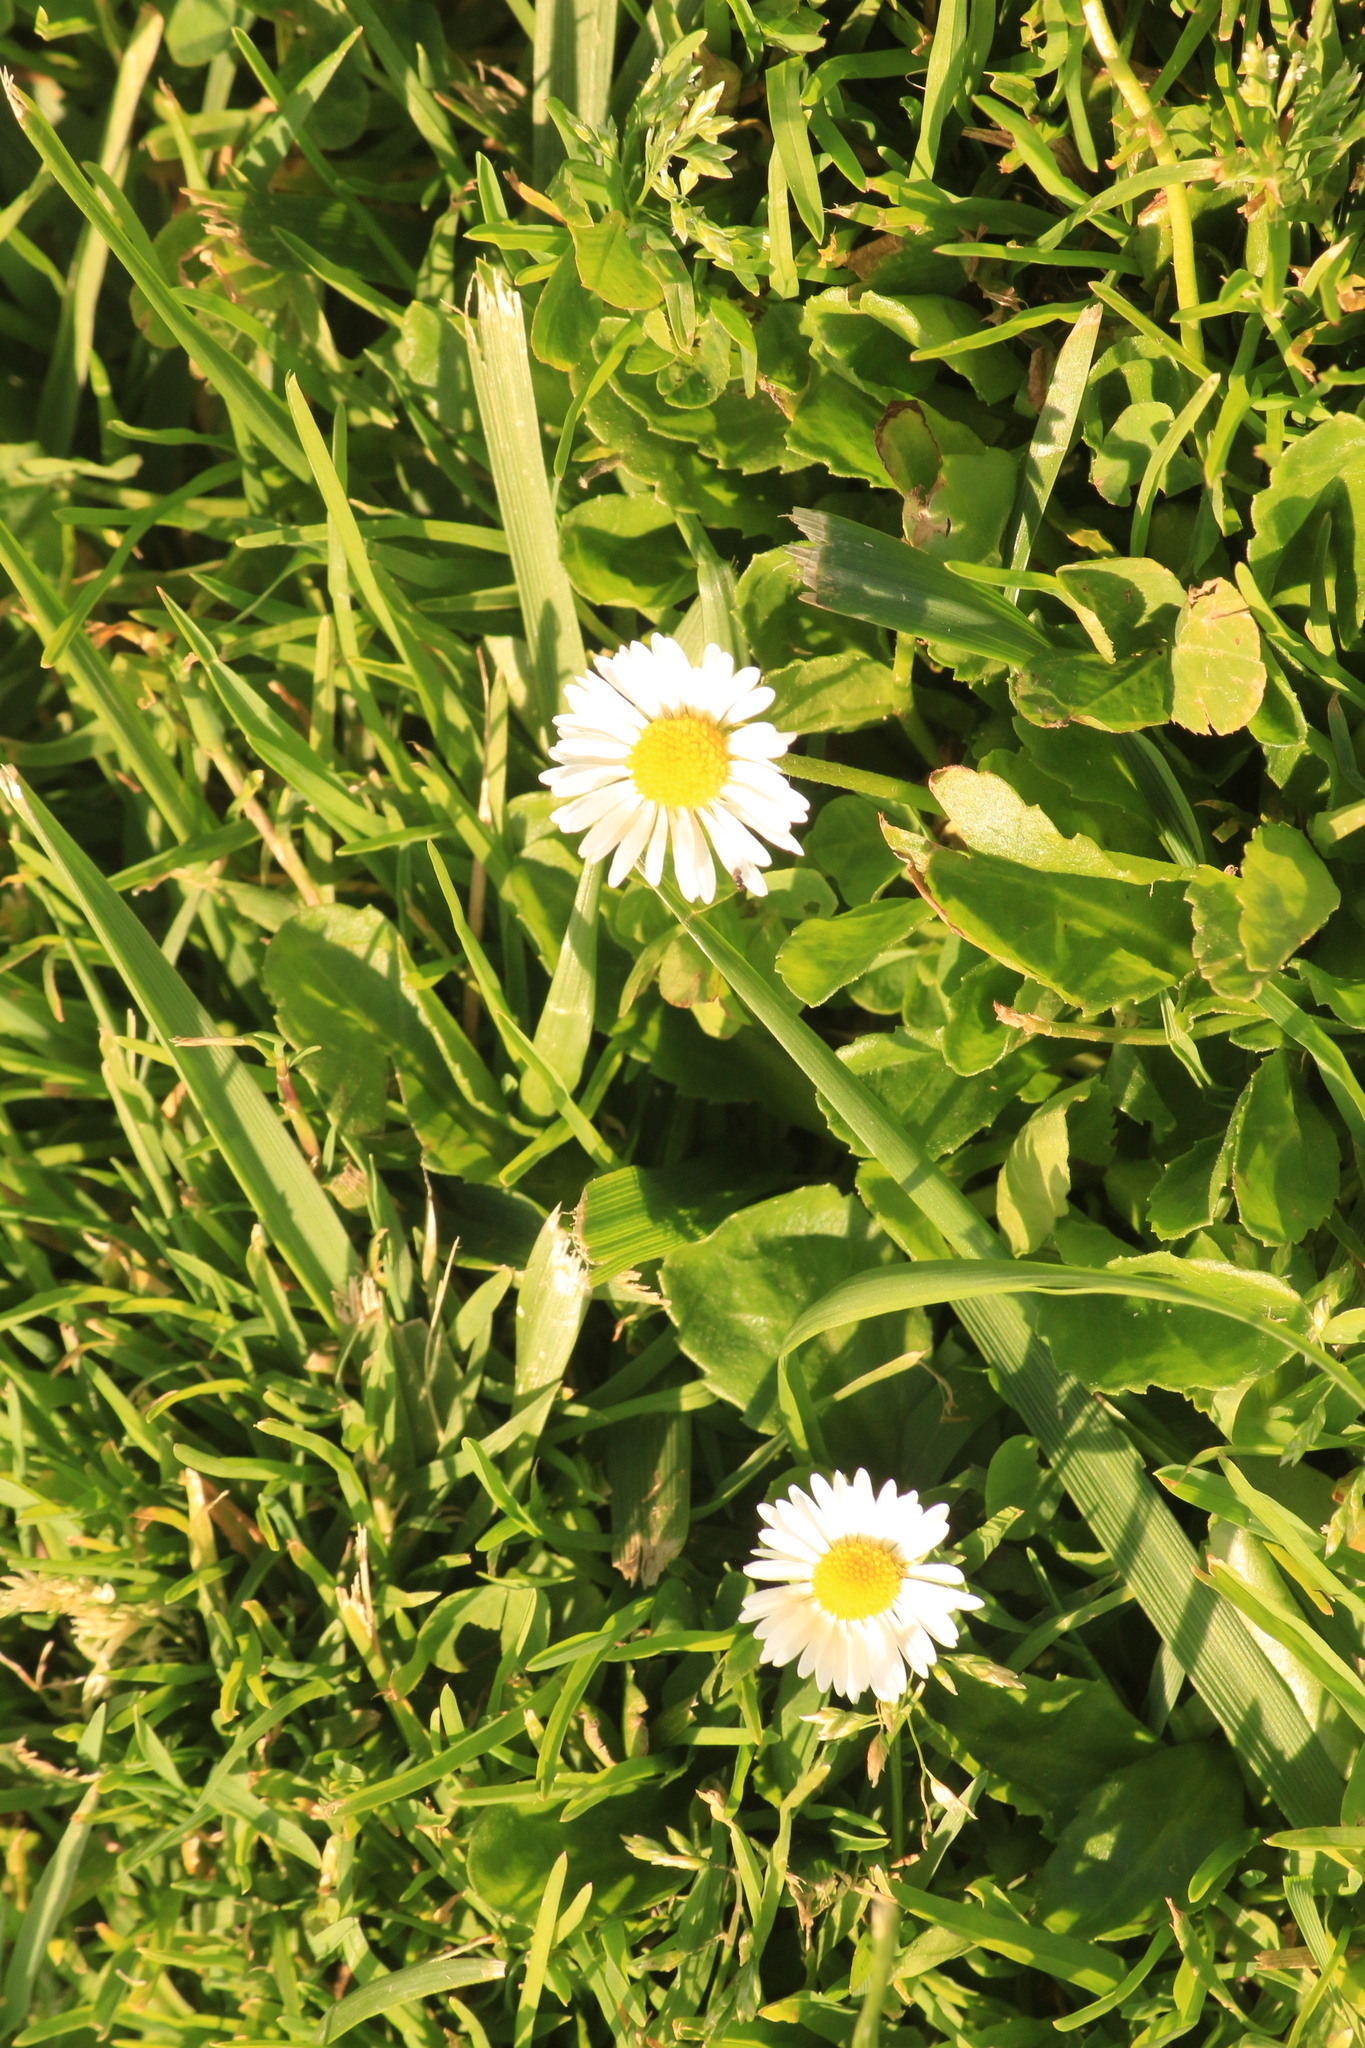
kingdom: Plantae
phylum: Tracheophyta
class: Magnoliopsida
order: Asterales
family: Asteraceae
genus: Bellis
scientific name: Bellis perennis
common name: Lawndaisy
